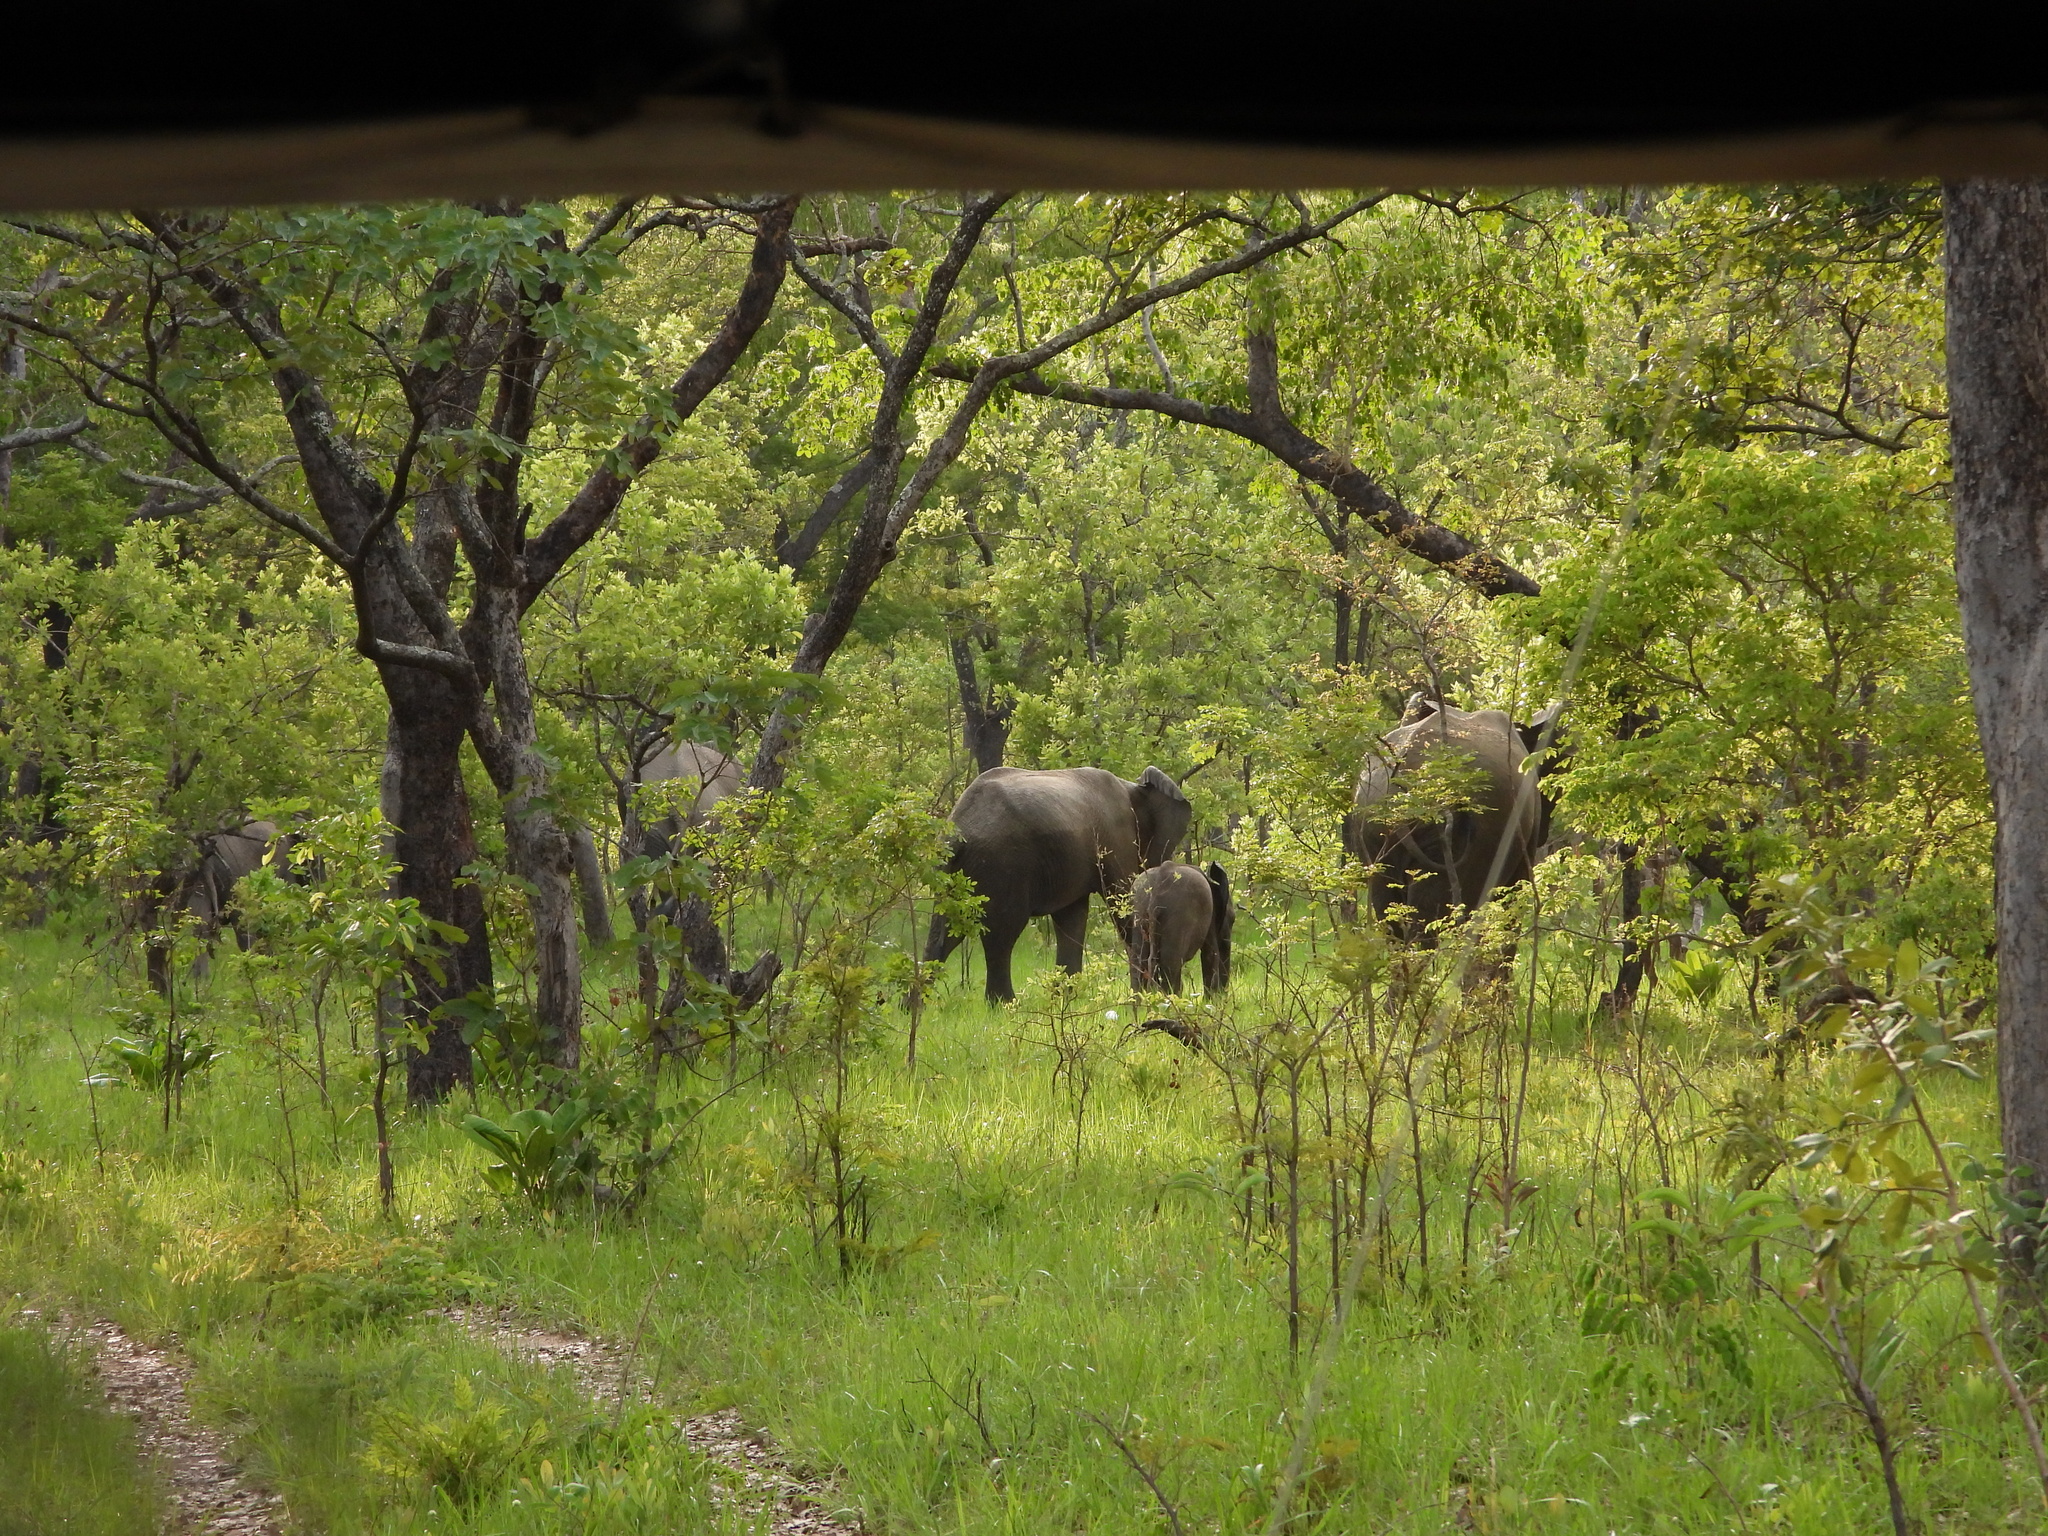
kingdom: Animalia
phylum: Chordata
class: Mammalia
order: Proboscidea
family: Elephantidae
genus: Loxodonta
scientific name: Loxodonta africana
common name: African elephant
